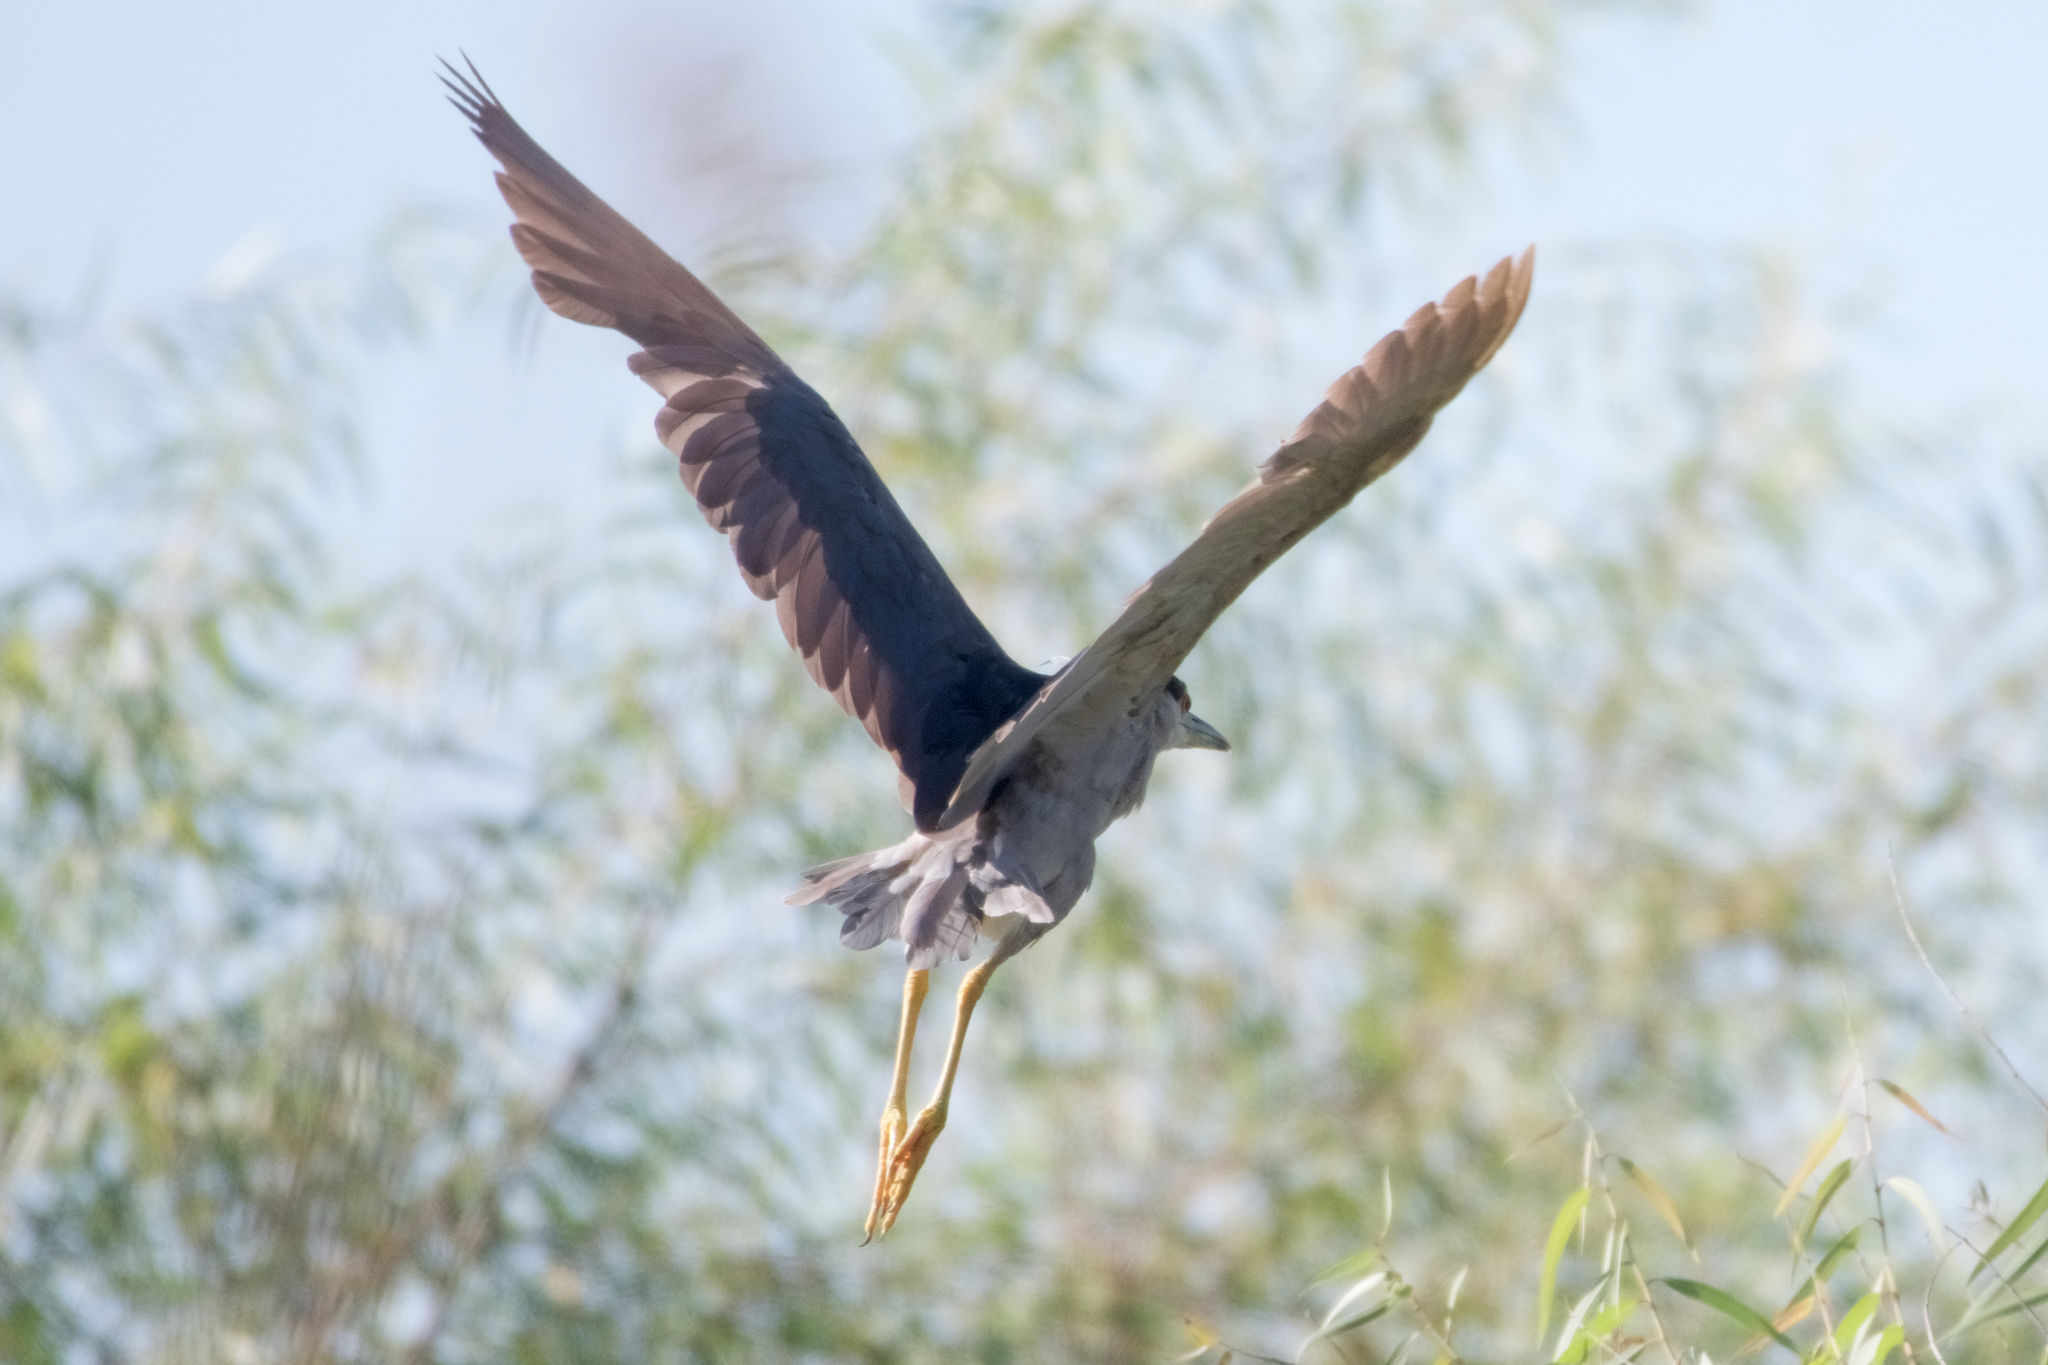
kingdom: Animalia
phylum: Chordata
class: Aves
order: Pelecaniformes
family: Ardeidae
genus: Nycticorax
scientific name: Nycticorax nycticorax
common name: Black-crowned night heron
